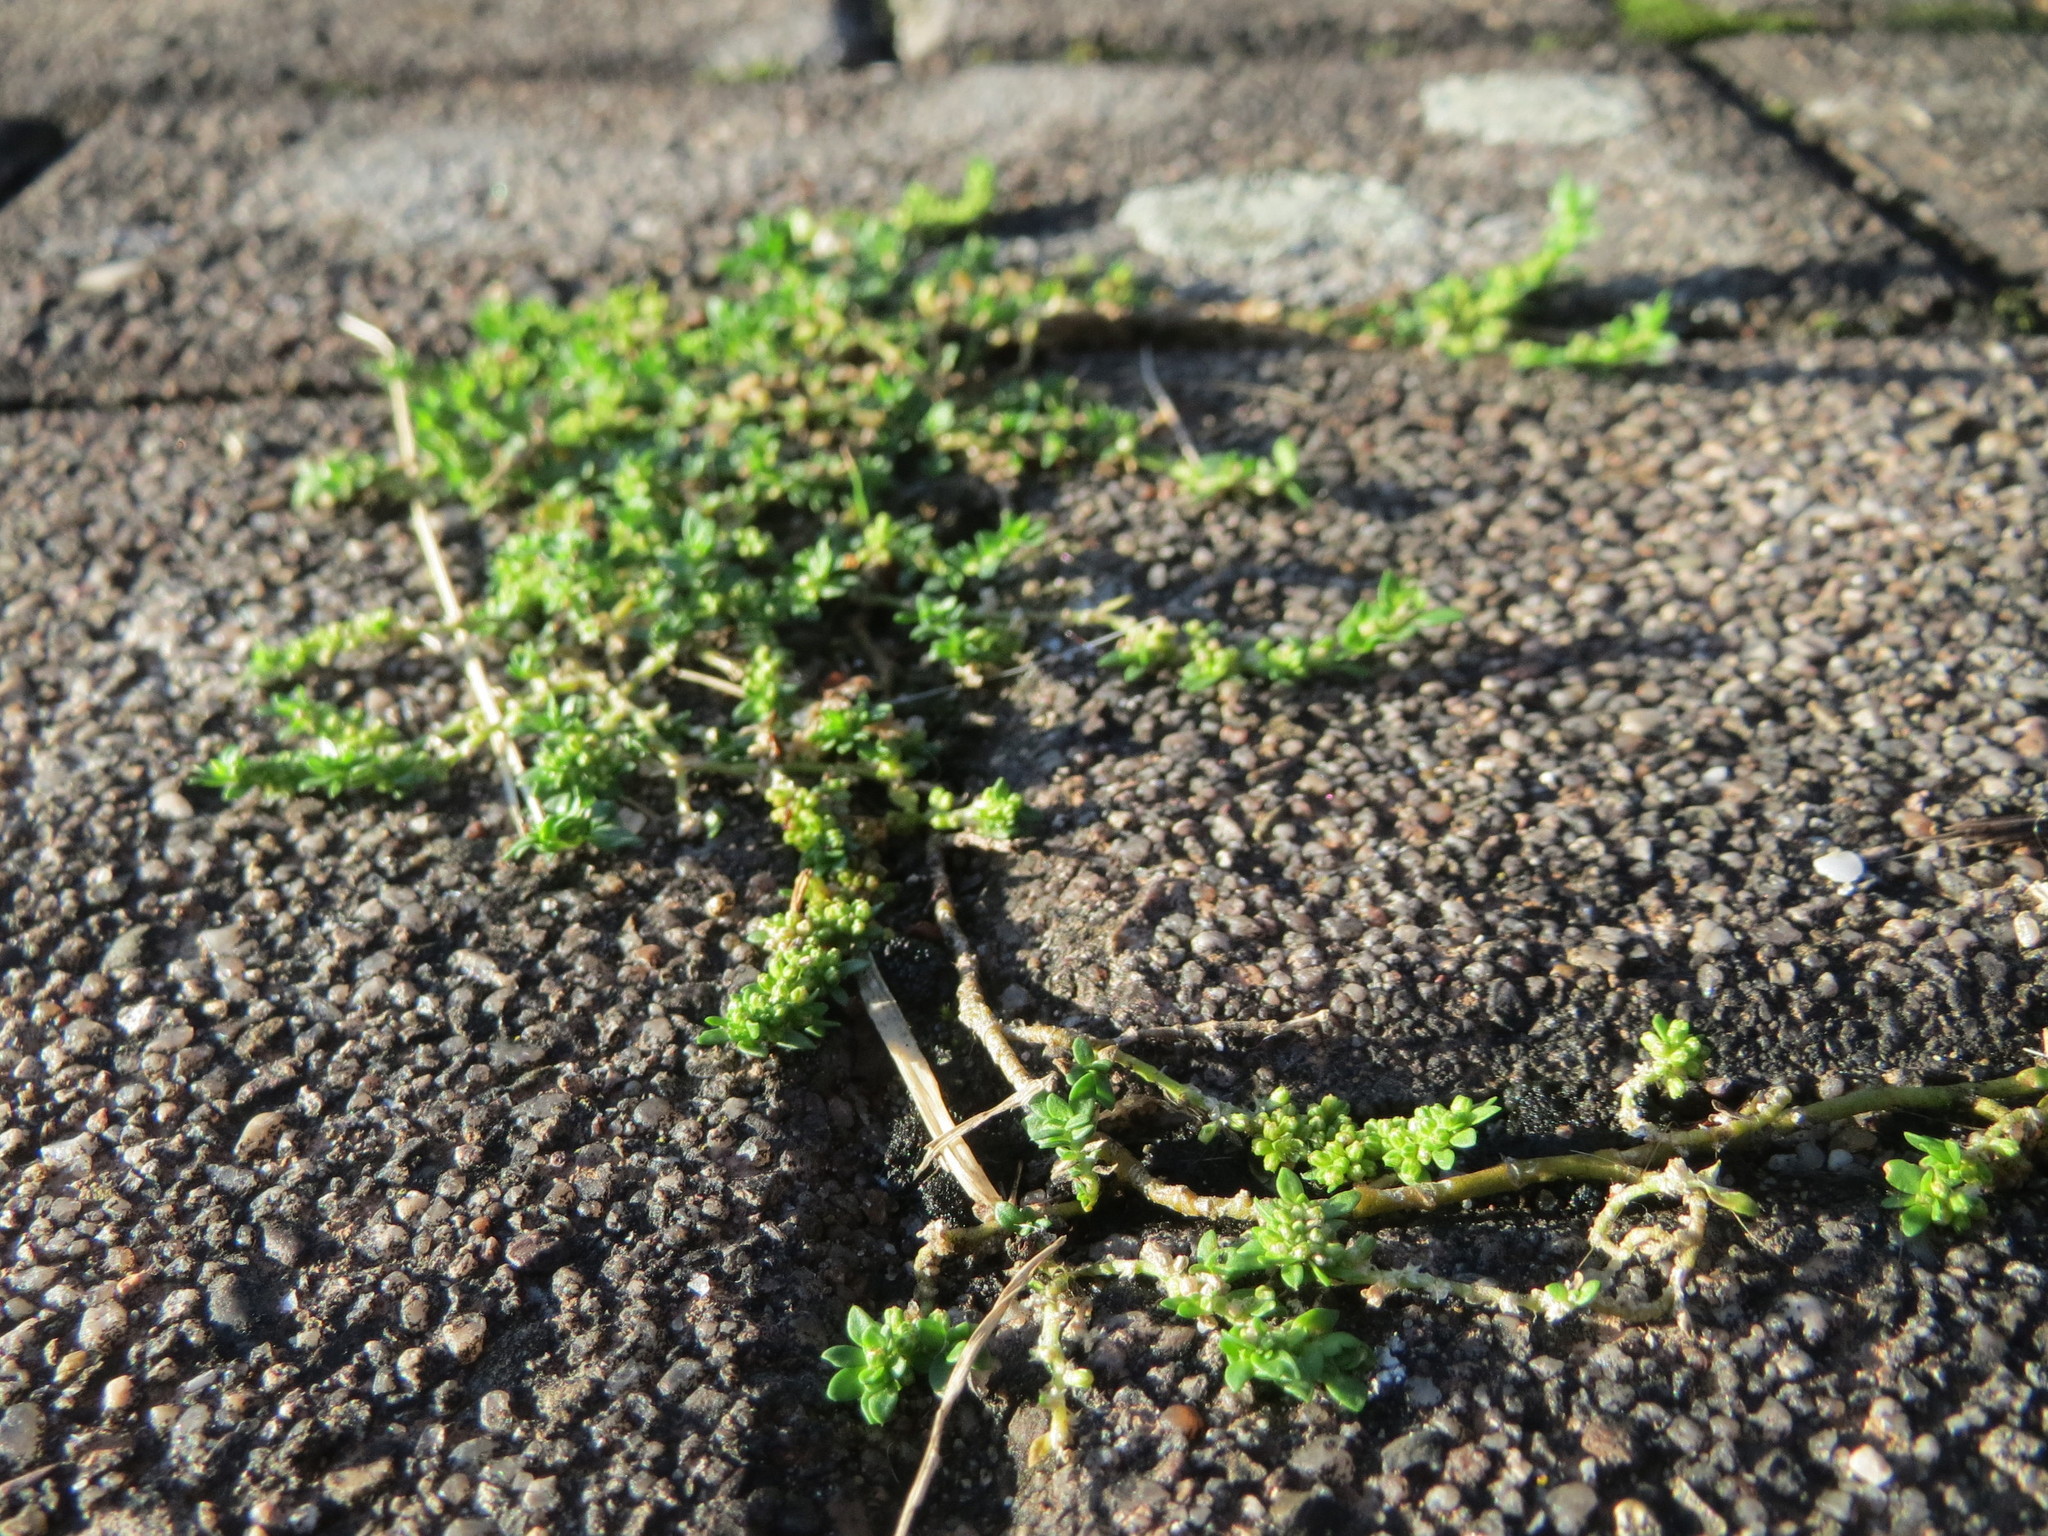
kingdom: Plantae
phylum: Tracheophyta
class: Magnoliopsida
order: Caryophyllales
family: Caryophyllaceae
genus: Herniaria
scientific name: Herniaria glabra
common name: Smooth rupturewort
